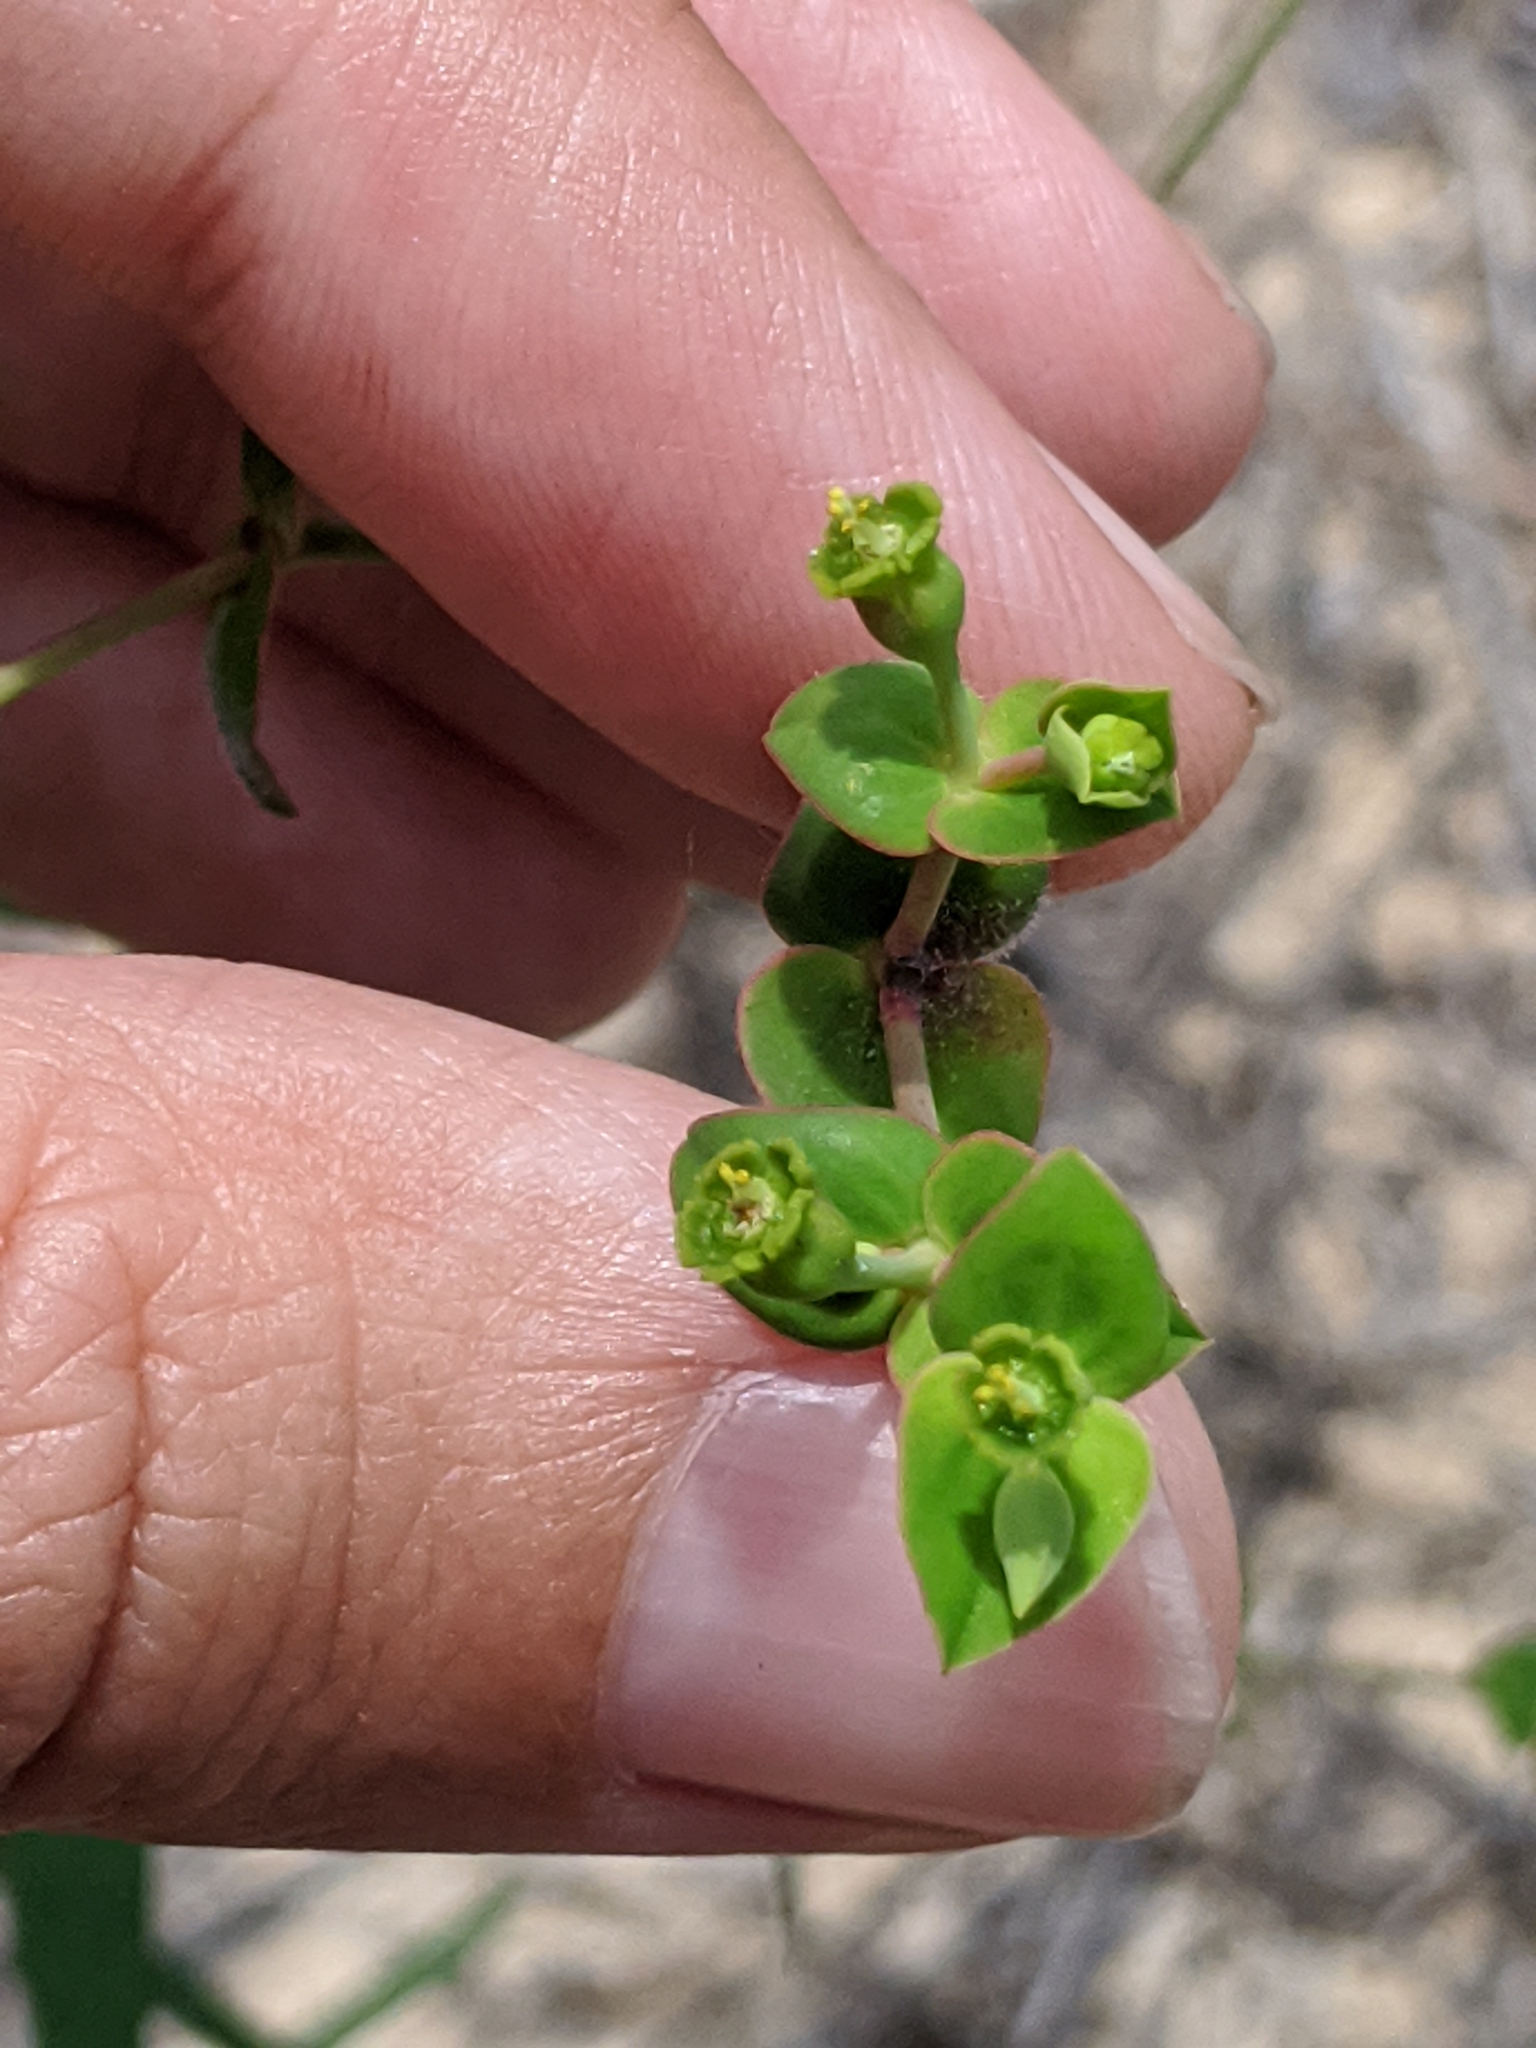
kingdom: Plantae
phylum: Tracheophyta
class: Magnoliopsida
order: Malpighiales
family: Euphorbiaceae
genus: Euphorbia
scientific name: Euphorbia floridana
